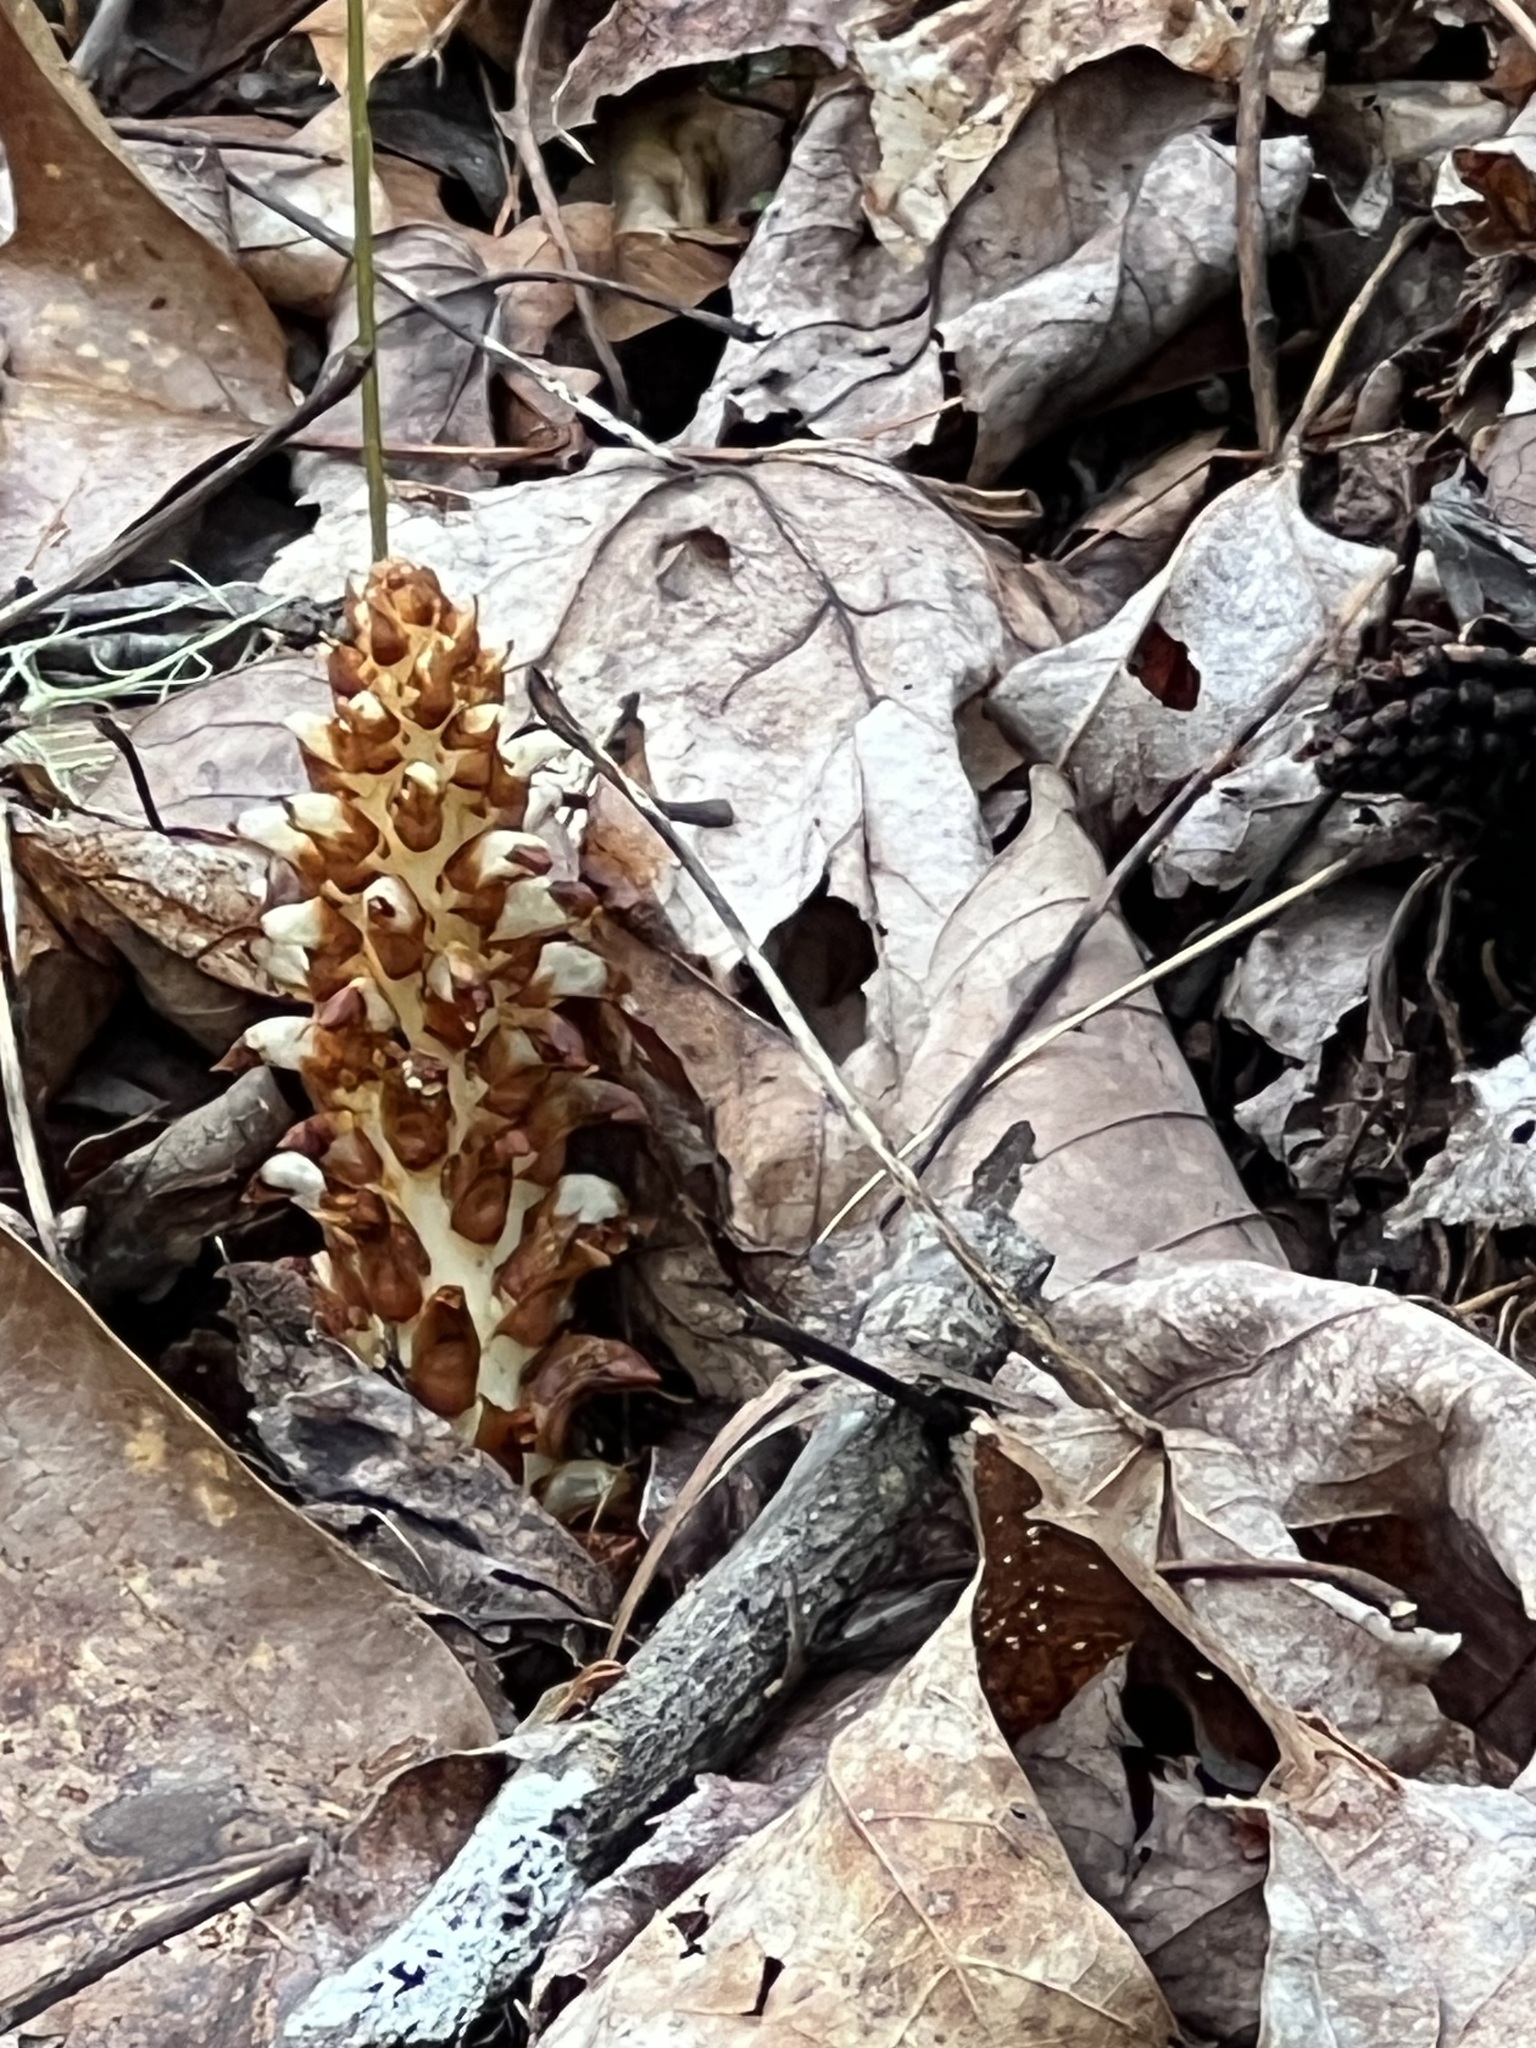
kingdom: Plantae
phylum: Tracheophyta
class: Magnoliopsida
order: Lamiales
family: Orobanchaceae
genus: Conopholis
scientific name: Conopholis americana
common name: American cancer-root
